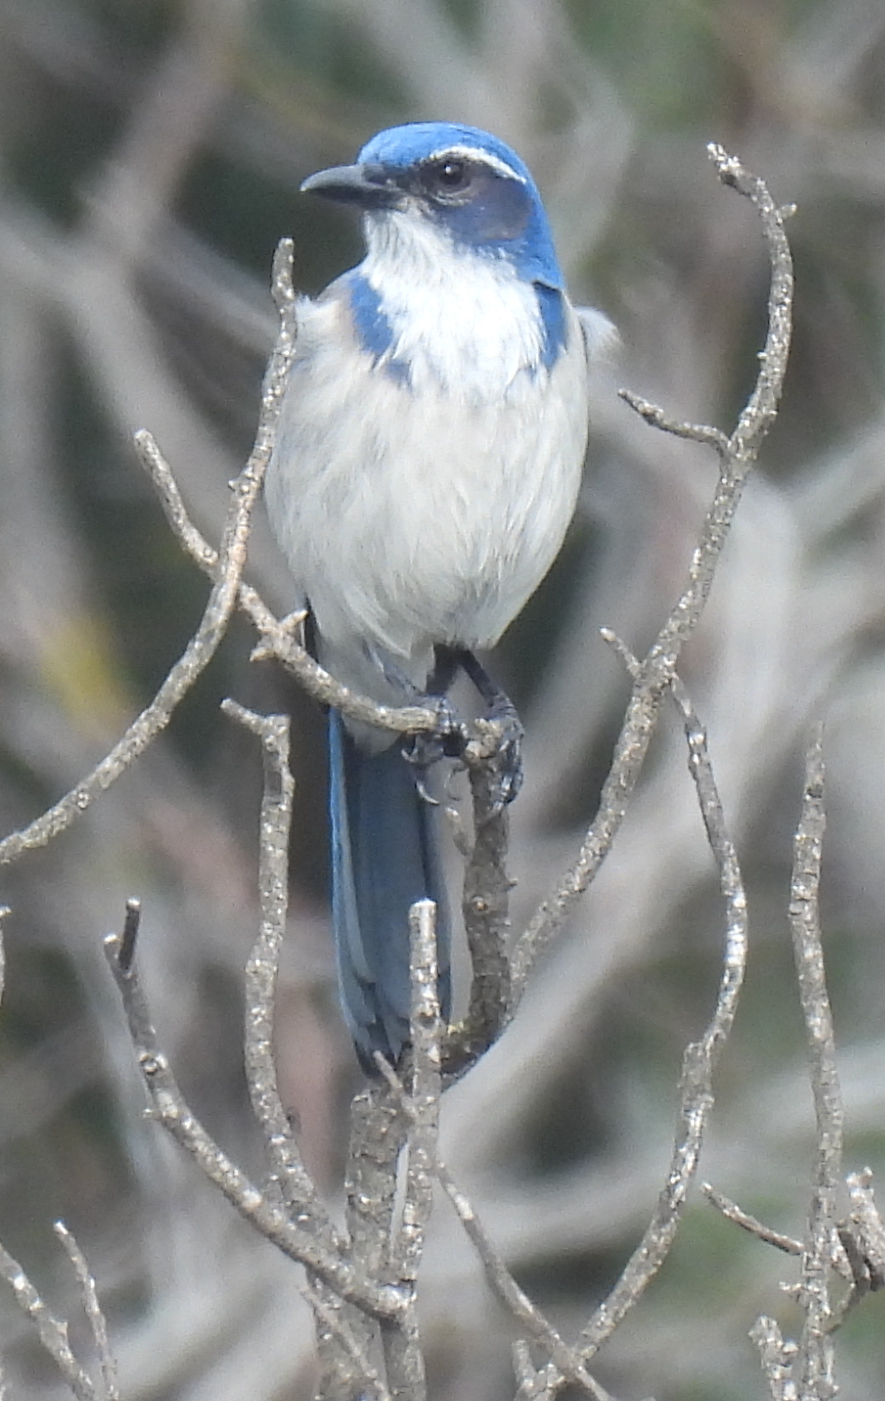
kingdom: Animalia
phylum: Chordata
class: Aves
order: Passeriformes
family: Corvidae
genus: Aphelocoma
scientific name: Aphelocoma californica
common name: California scrub-jay
